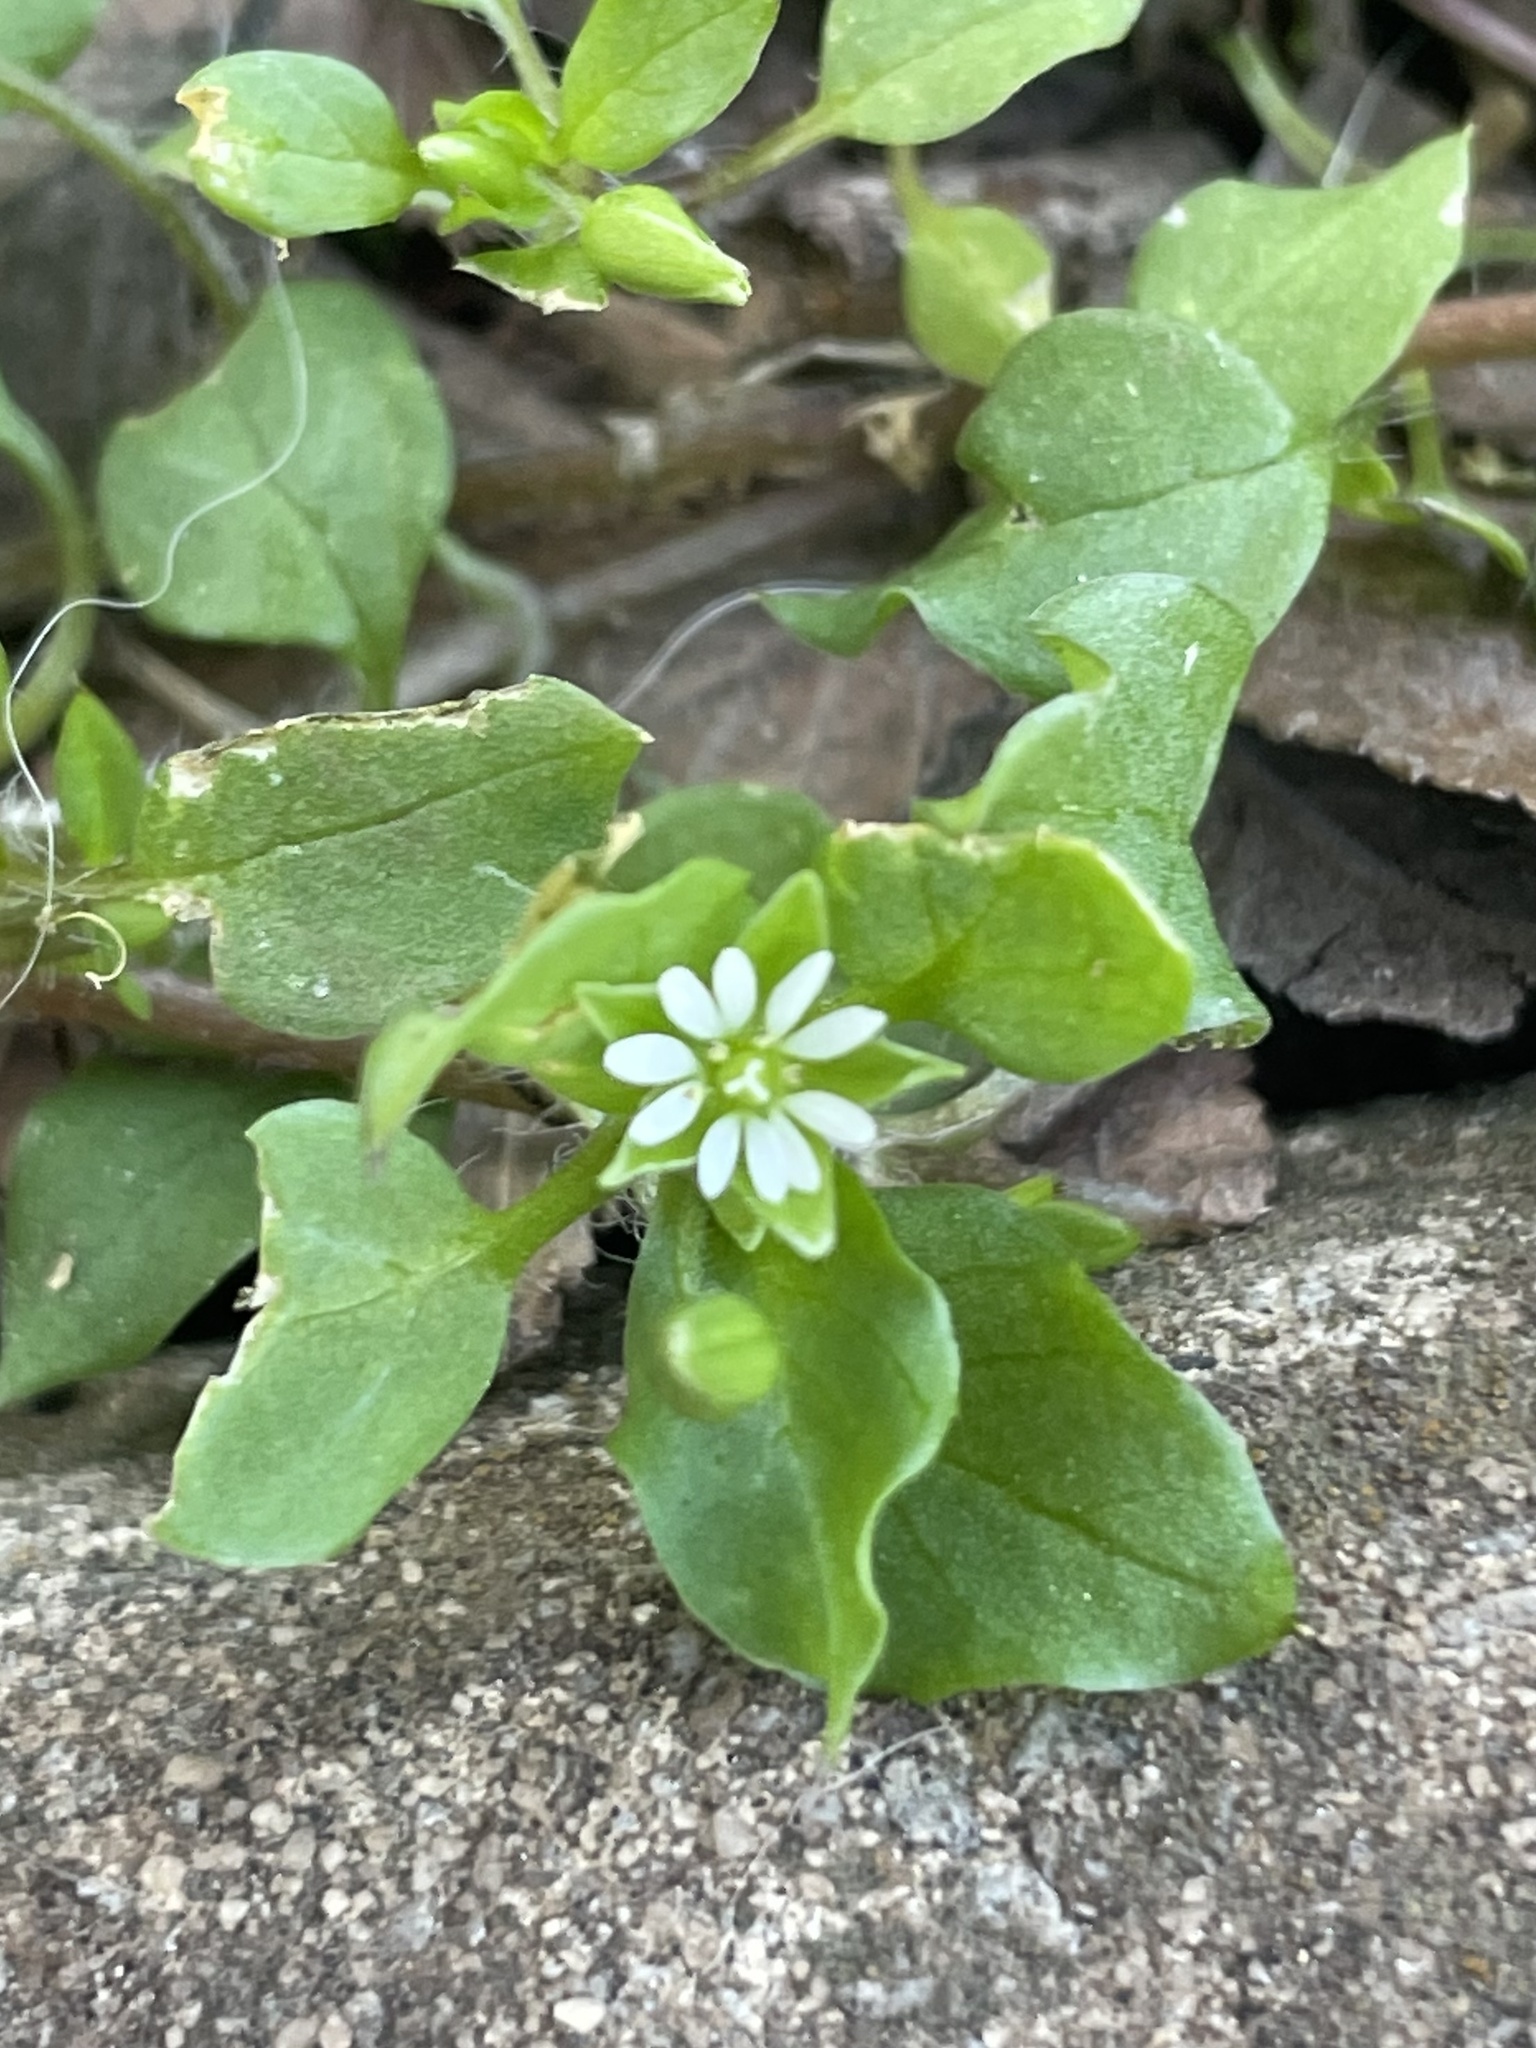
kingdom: Plantae
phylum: Tracheophyta
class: Magnoliopsida
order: Caryophyllales
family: Caryophyllaceae
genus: Stellaria
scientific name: Stellaria media
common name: Common chickweed
